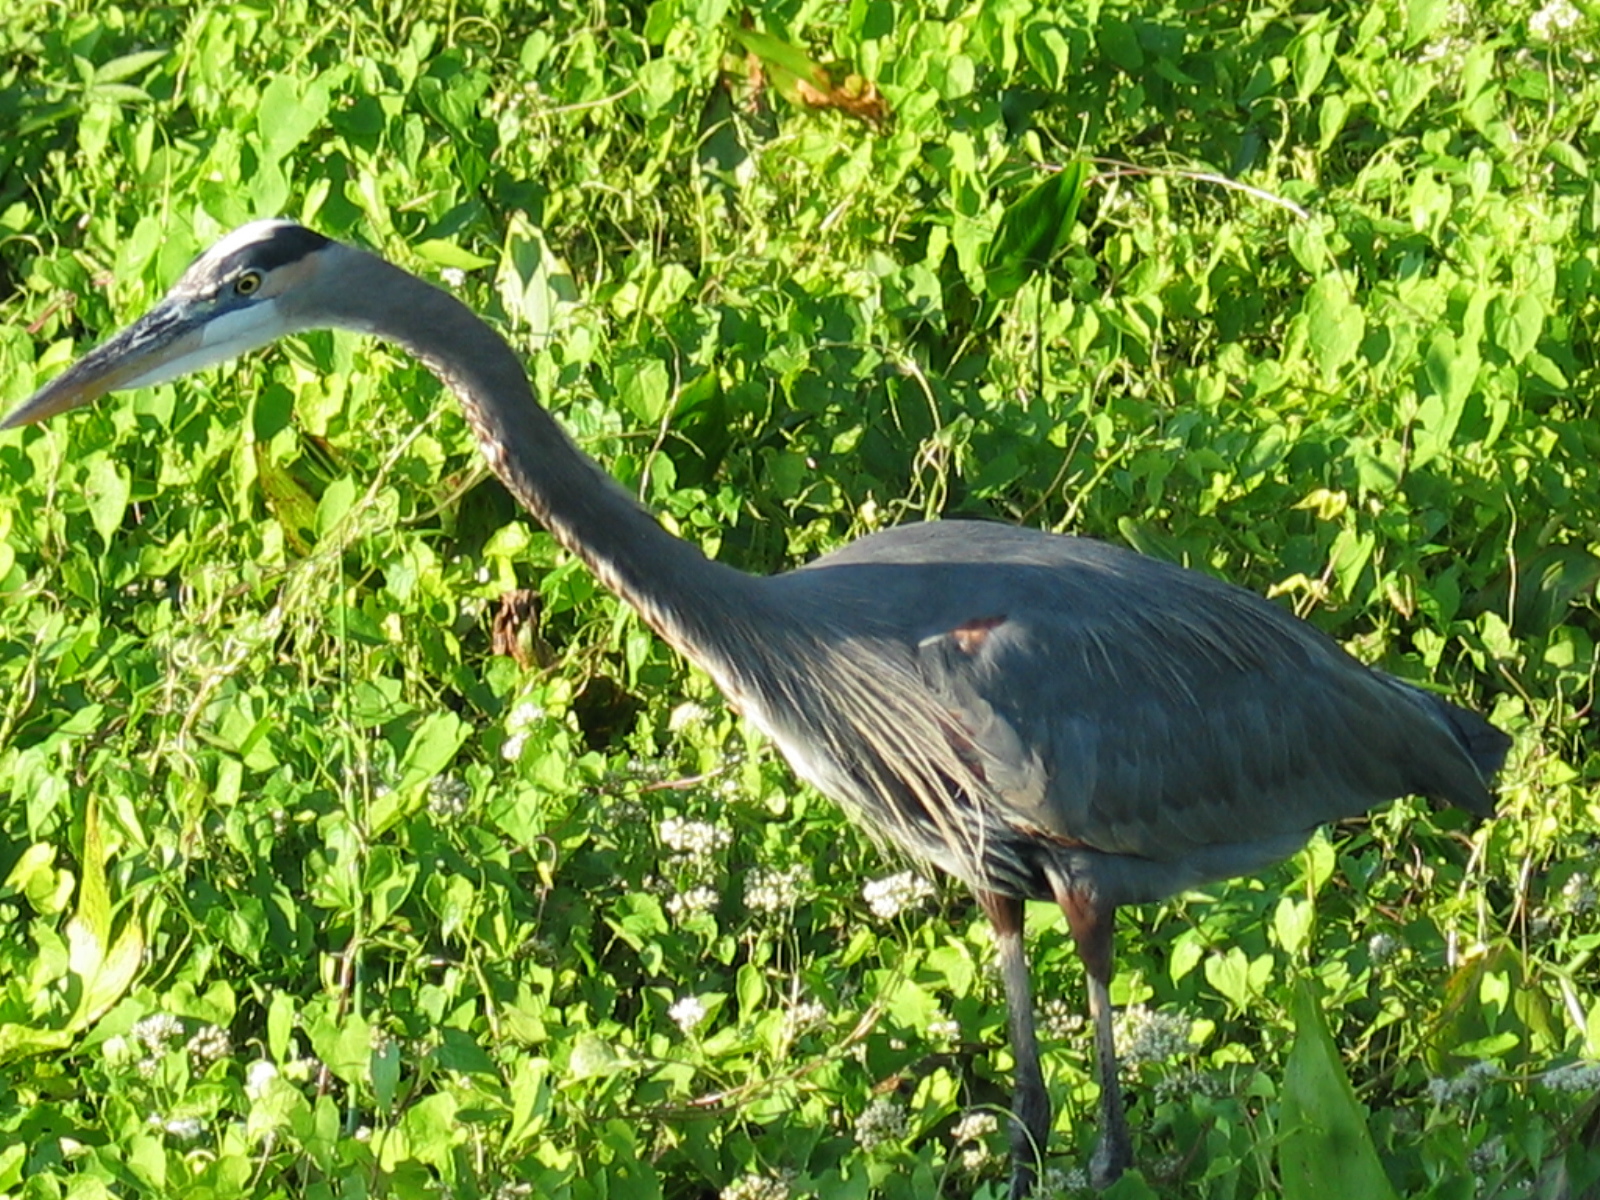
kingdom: Animalia
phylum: Chordata
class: Aves
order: Pelecaniformes
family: Ardeidae
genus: Ardea
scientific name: Ardea herodias
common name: Great blue heron
